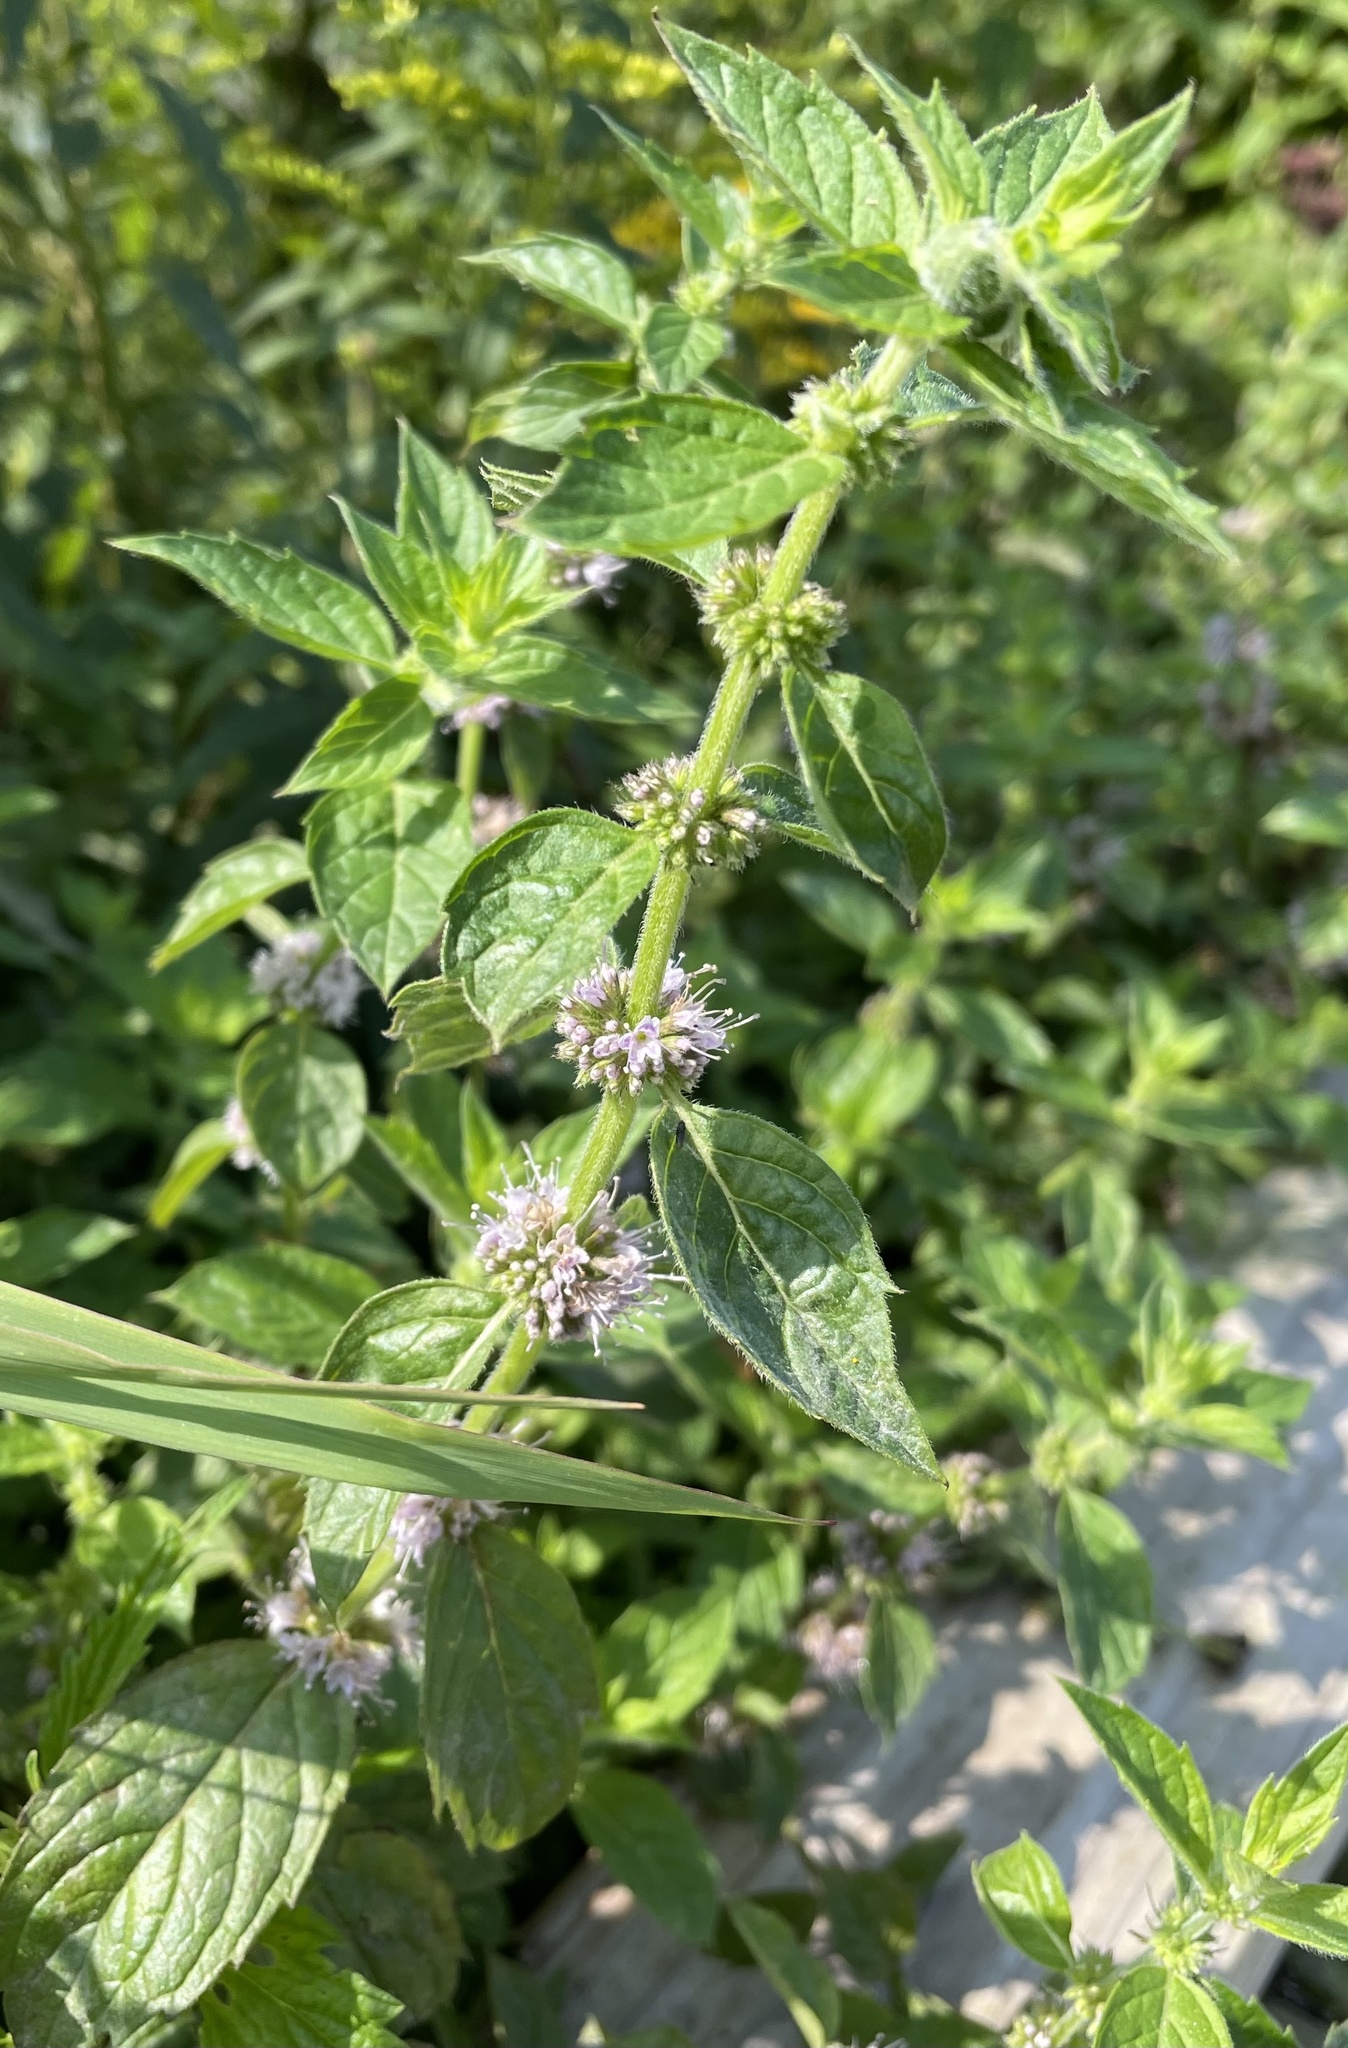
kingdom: Plantae
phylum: Tracheophyta
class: Magnoliopsida
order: Lamiales
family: Lamiaceae
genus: Mentha
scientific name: Mentha canadensis
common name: American corn mint
